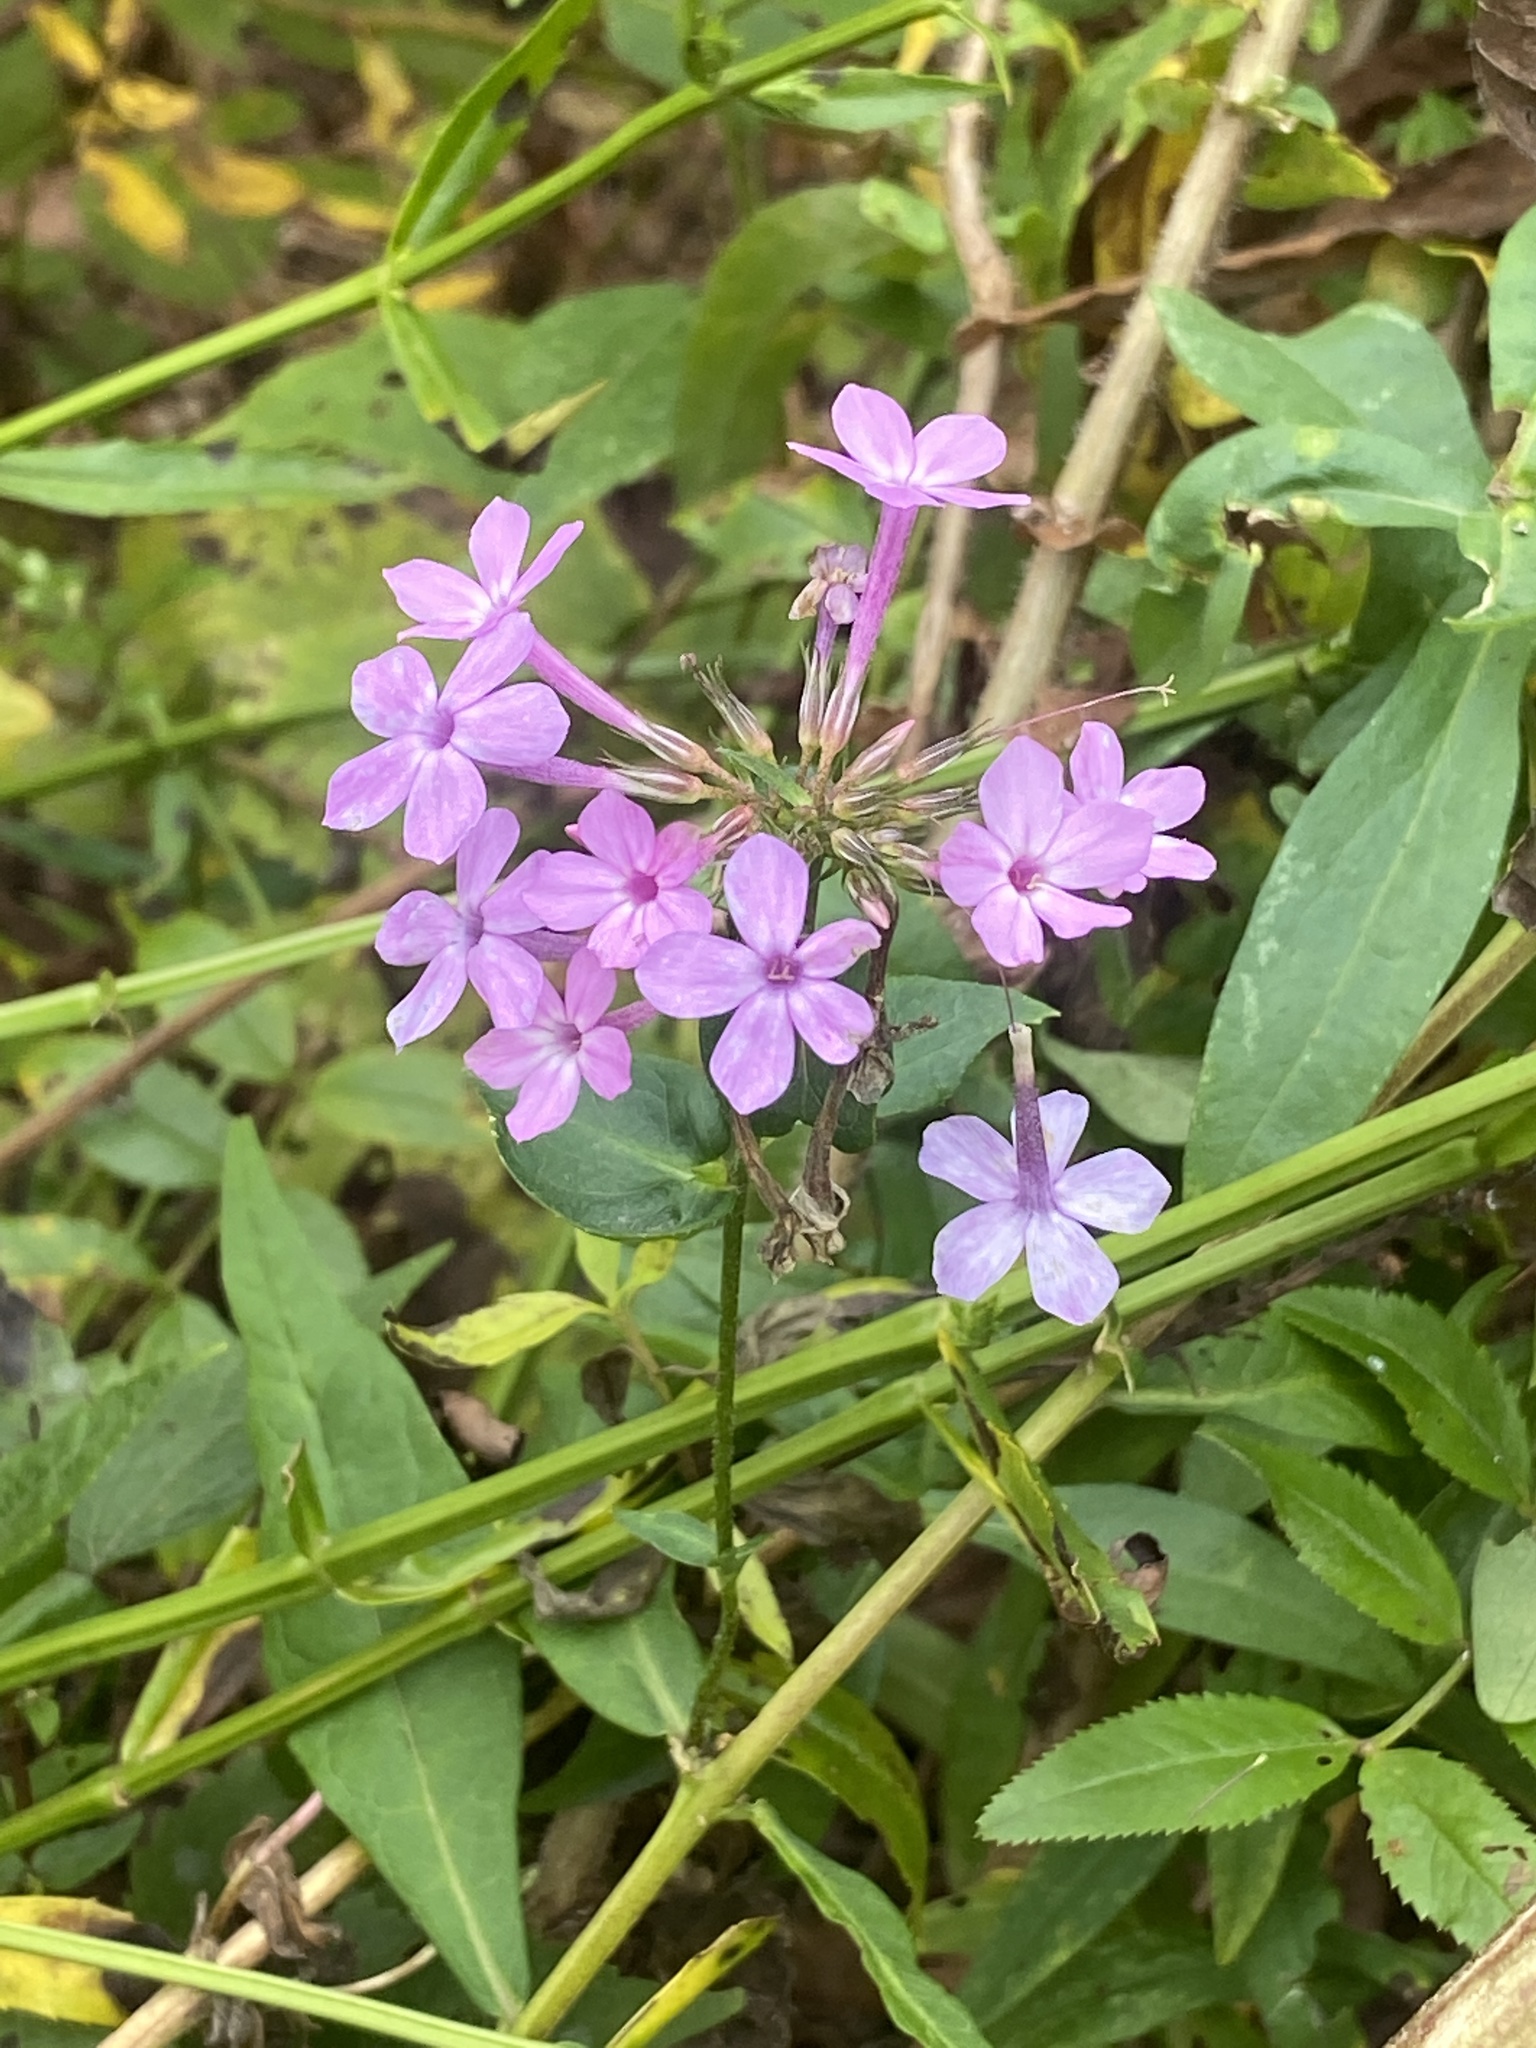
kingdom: Plantae
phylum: Tracheophyta
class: Magnoliopsida
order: Ericales
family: Polemoniaceae
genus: Phlox
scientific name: Phlox paniculata
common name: Fall phlox
